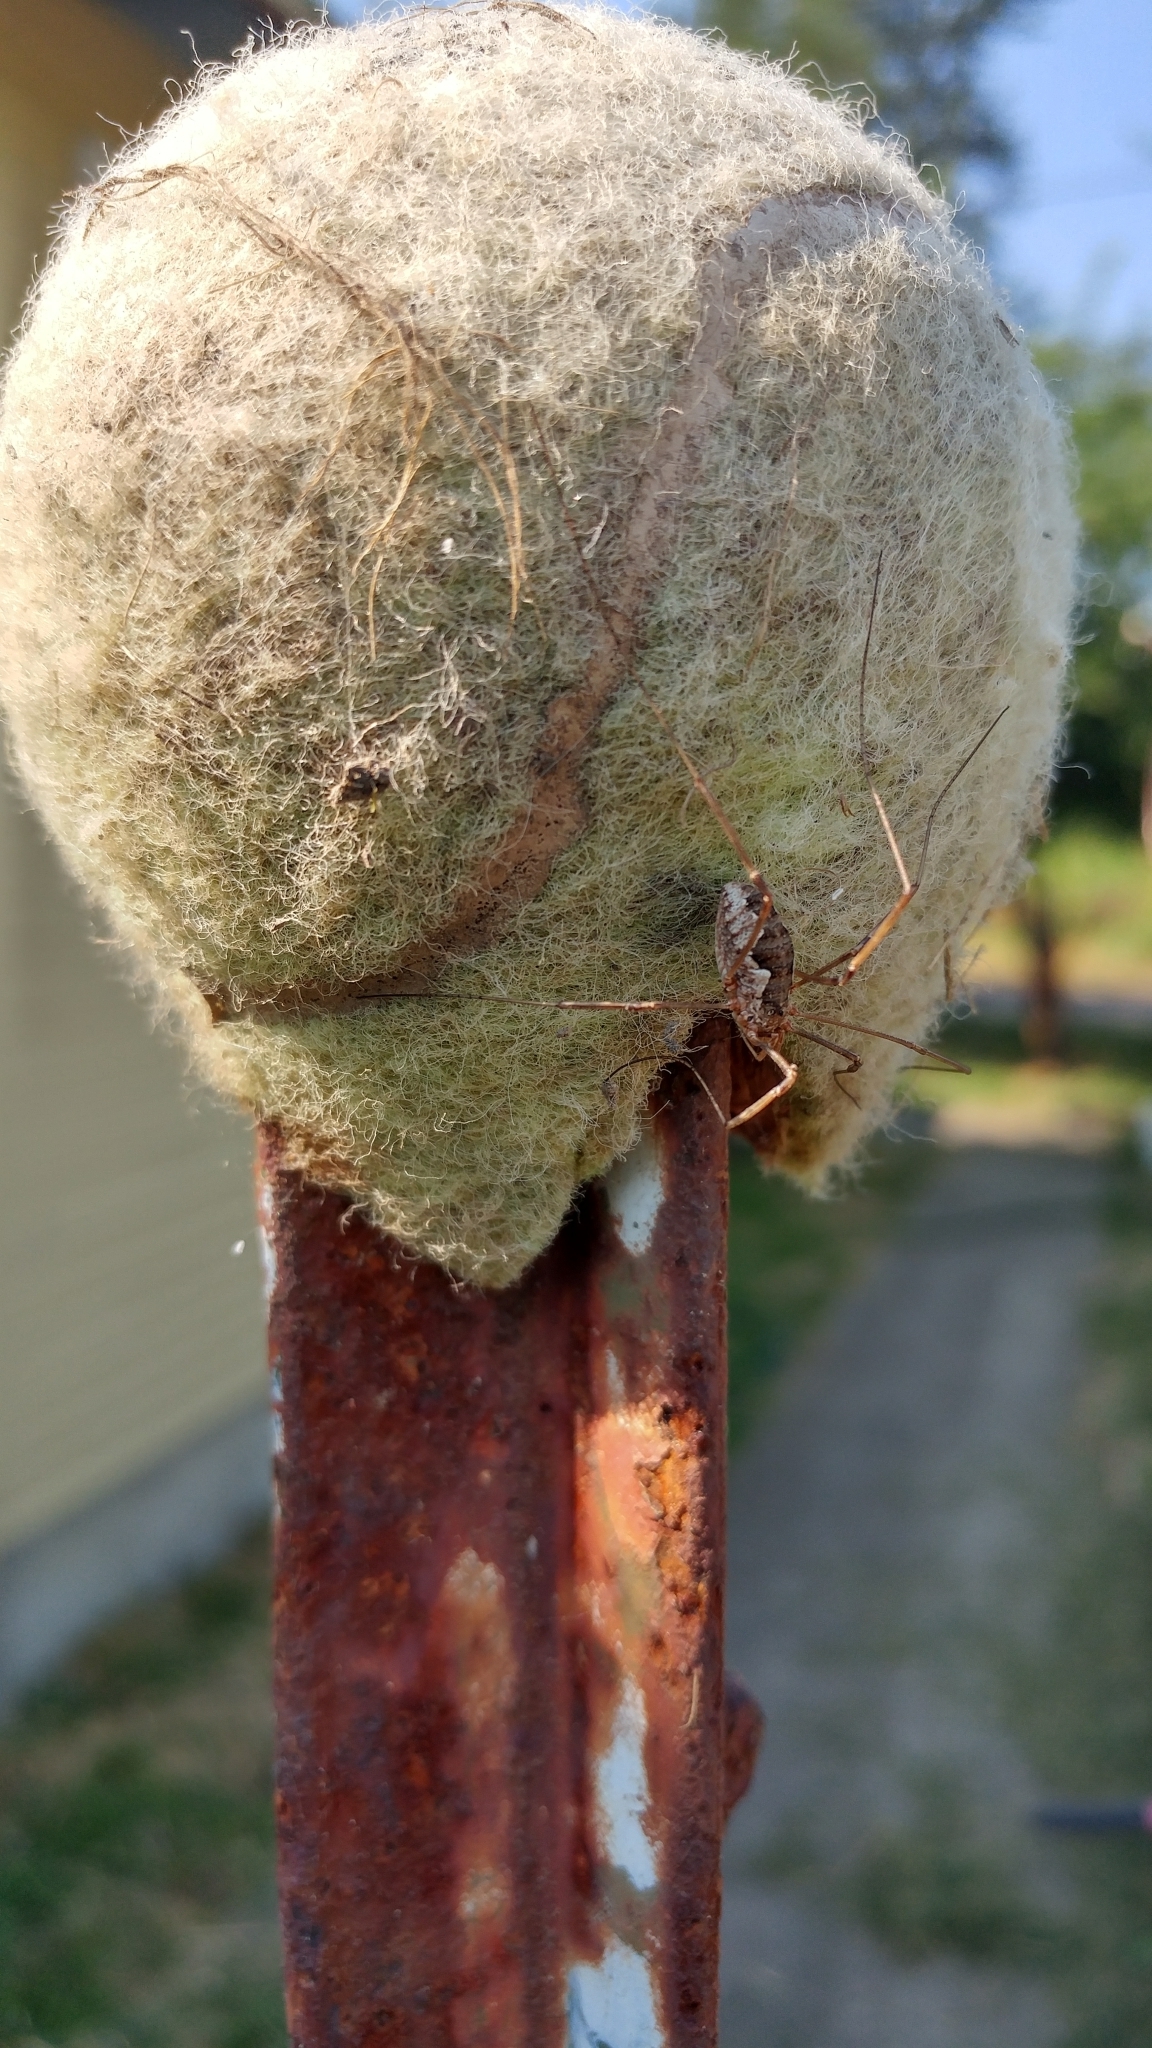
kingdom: Animalia
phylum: Arthropoda
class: Arachnida
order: Opiliones
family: Phalangiidae
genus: Phalangium
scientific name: Phalangium opilio
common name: Daddy longleg
